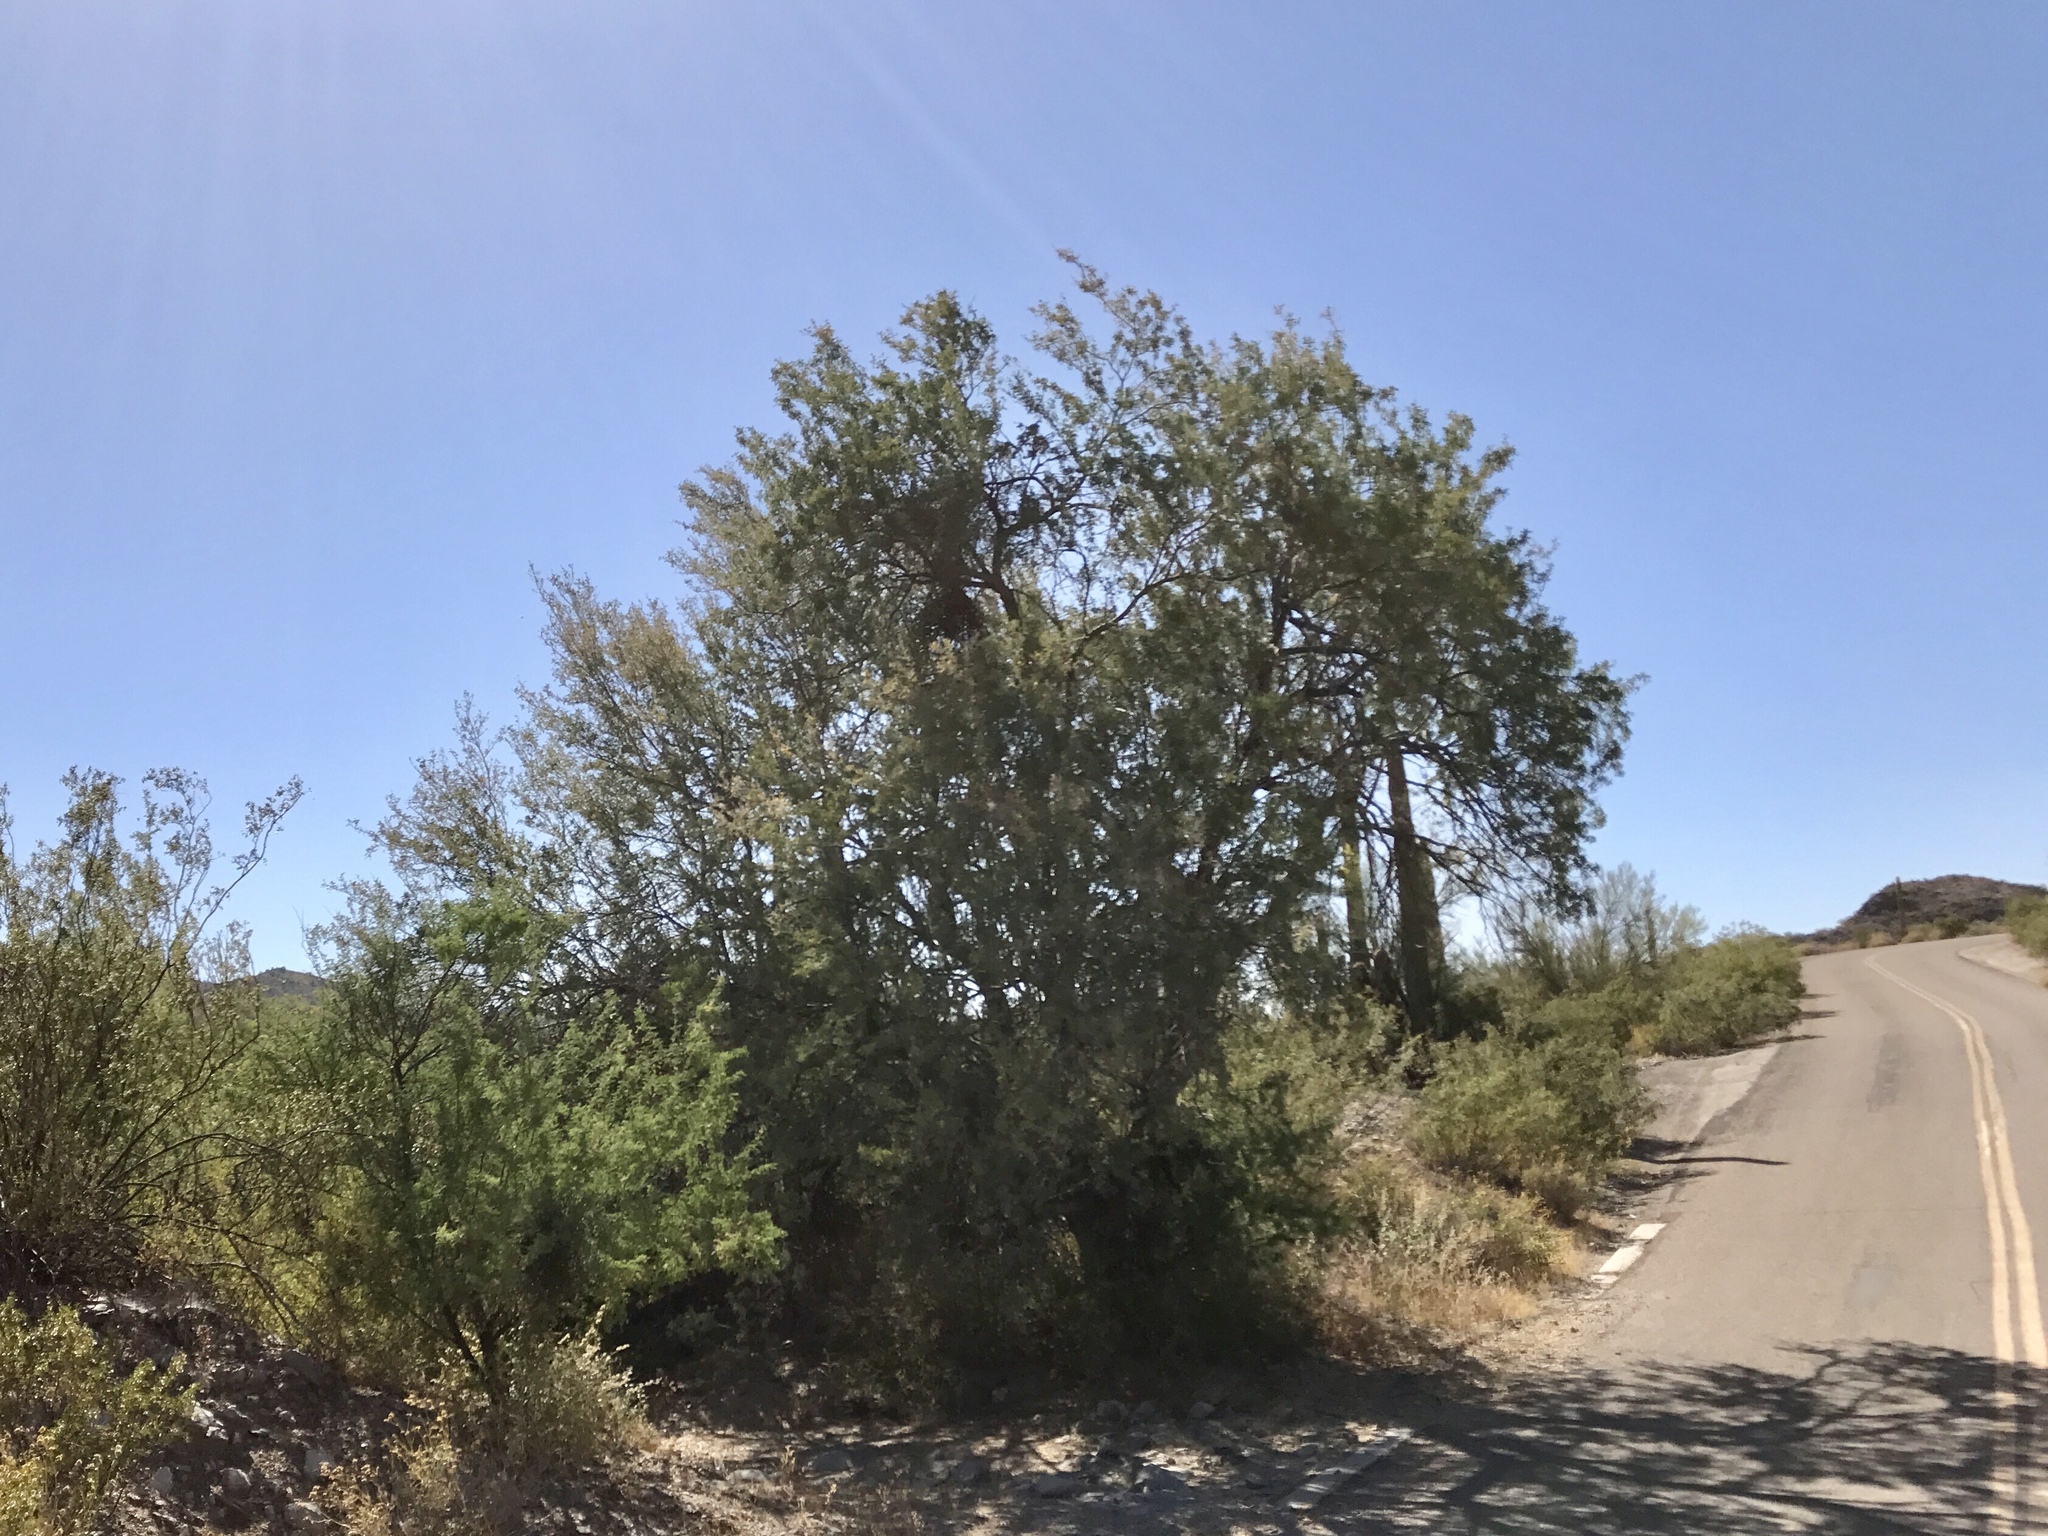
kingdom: Plantae
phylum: Tracheophyta
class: Magnoliopsida
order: Fabales
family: Fabaceae
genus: Olneya
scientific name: Olneya tesota
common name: Desert ironwood
